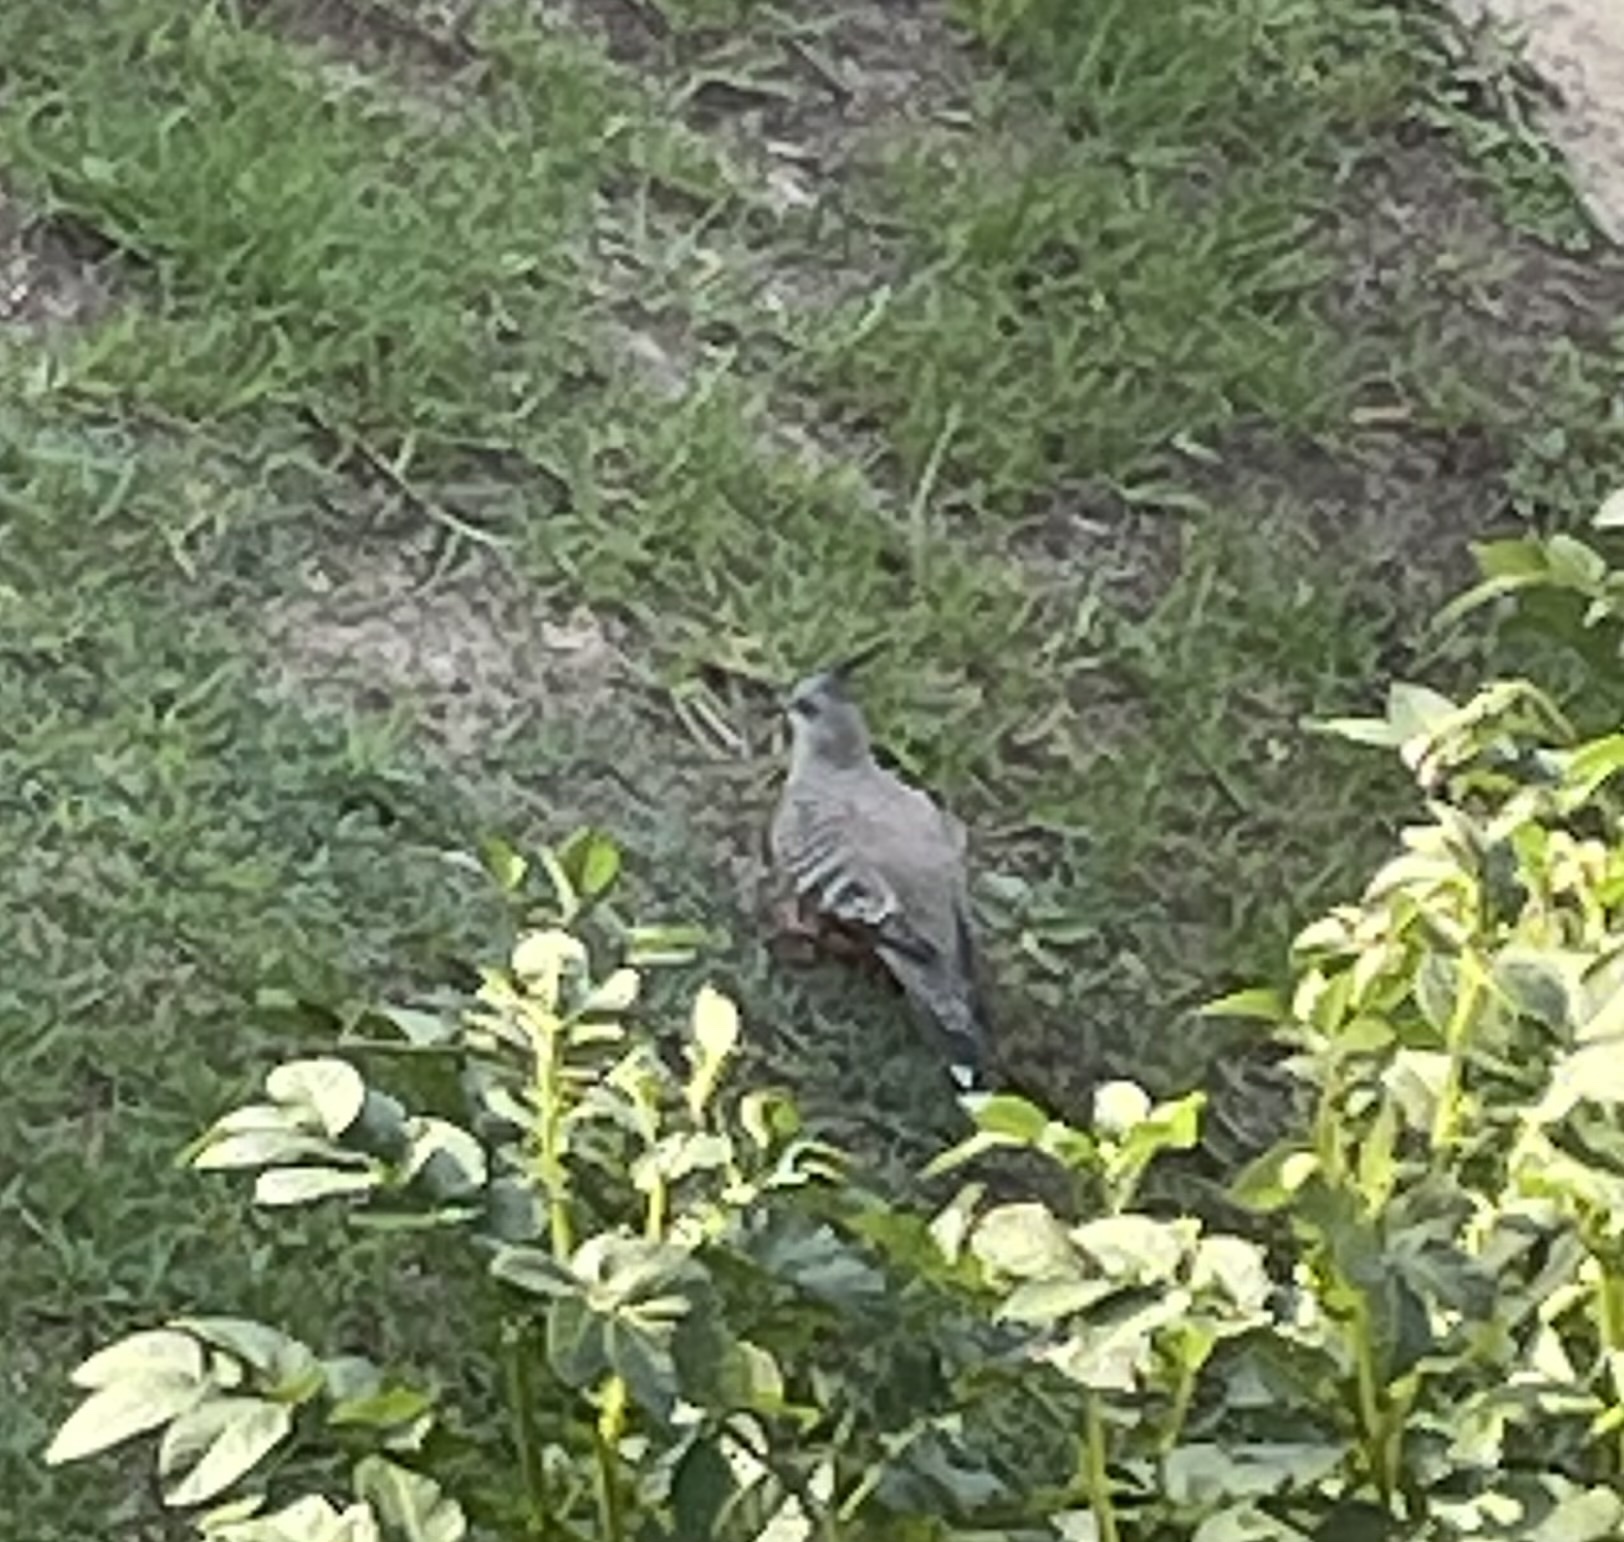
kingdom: Animalia
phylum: Chordata
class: Aves
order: Columbiformes
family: Columbidae
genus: Ocyphaps
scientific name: Ocyphaps lophotes
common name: Crested pigeon
